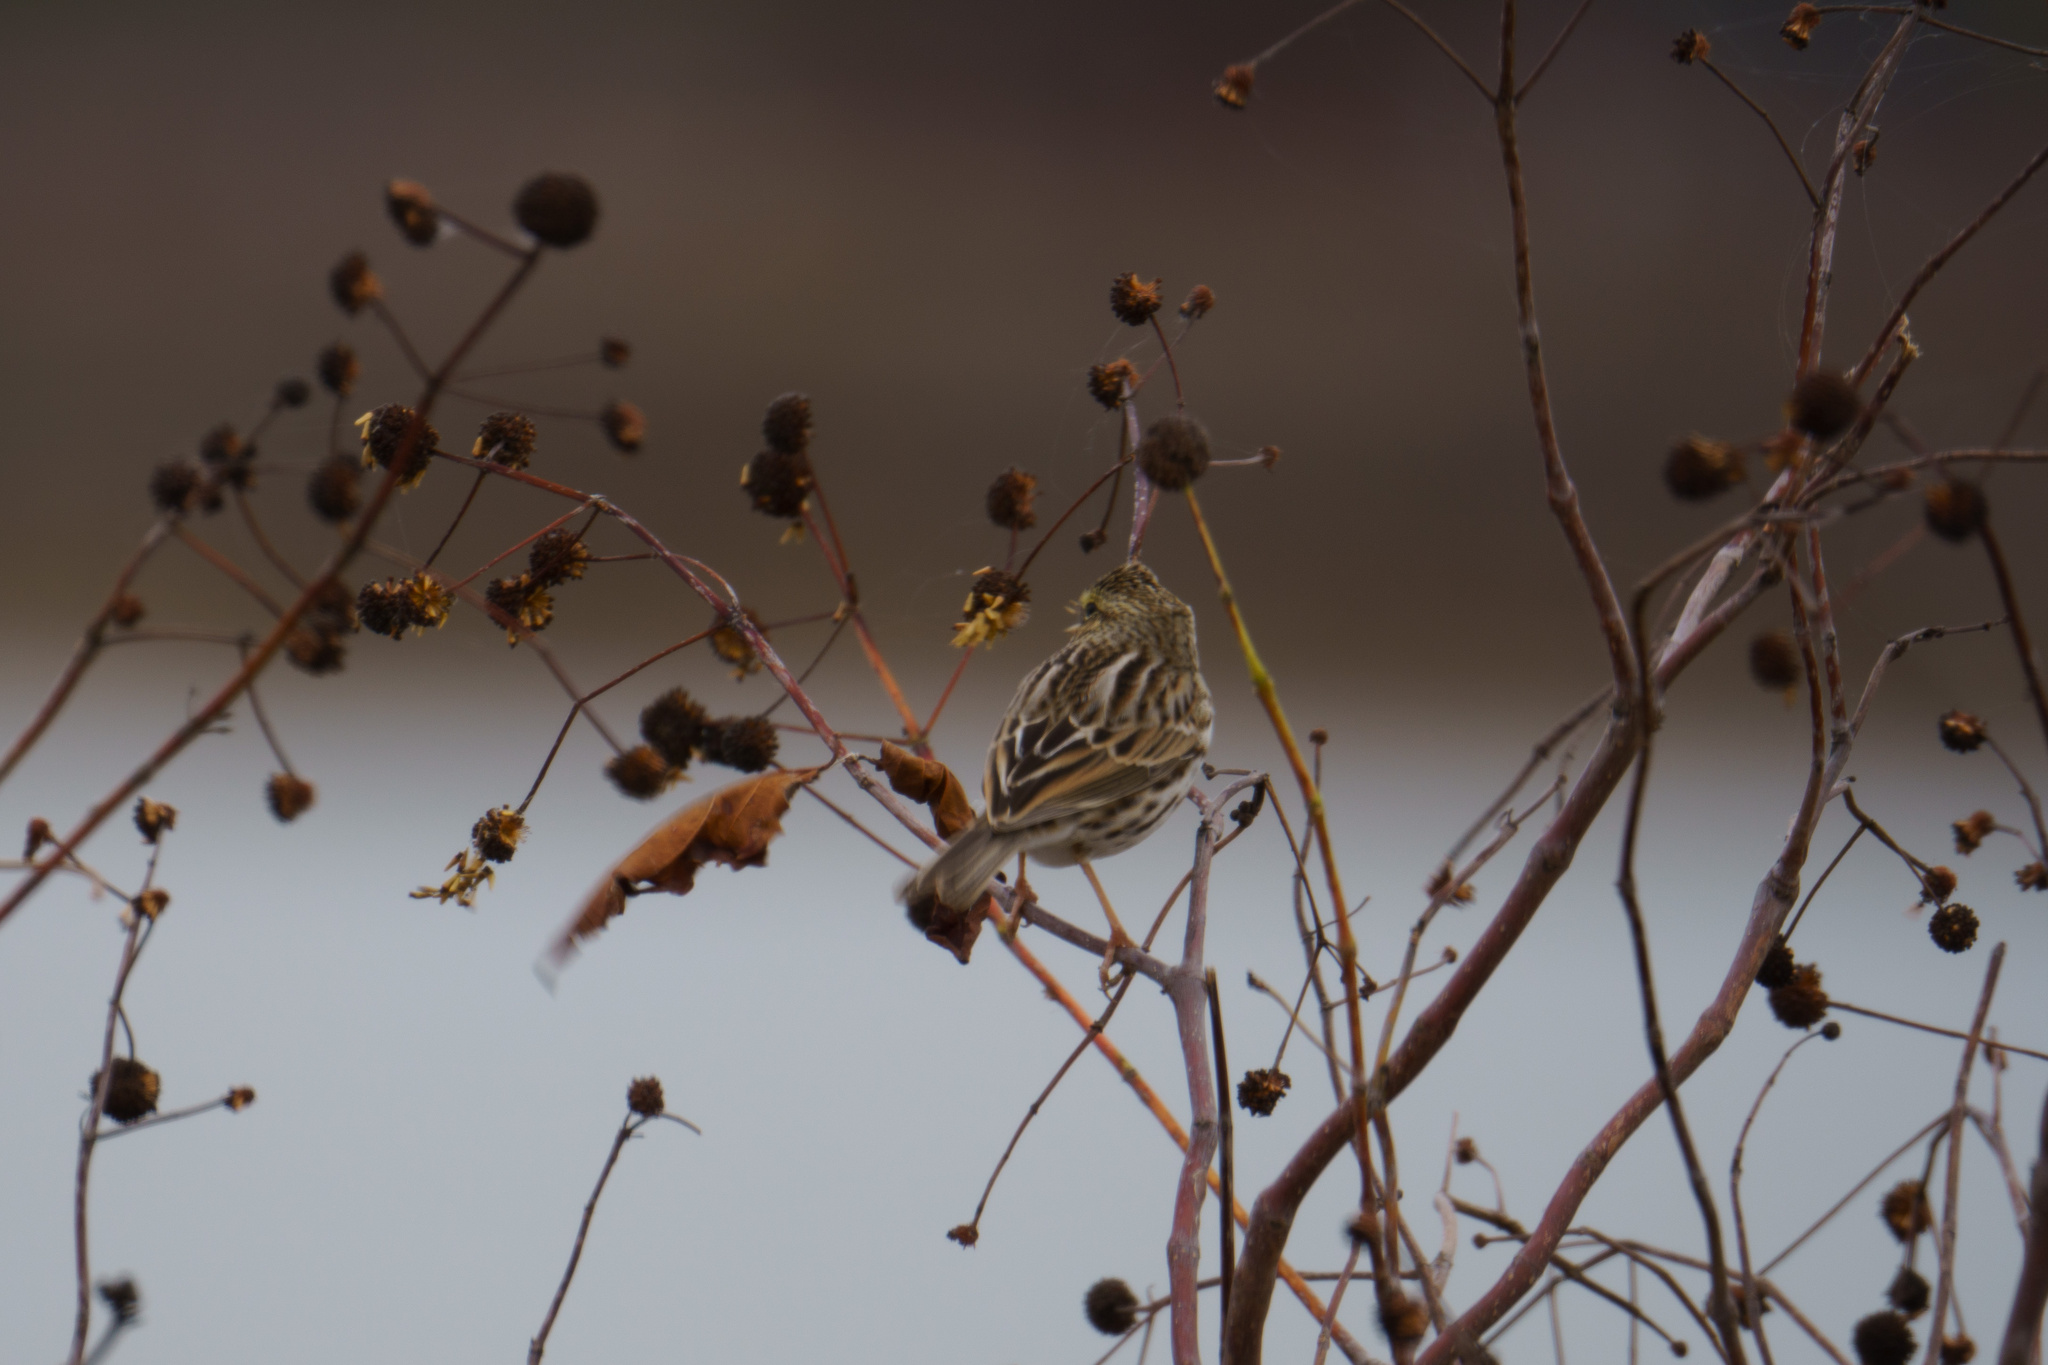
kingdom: Animalia
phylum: Chordata
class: Aves
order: Passeriformes
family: Passerellidae
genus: Passerculus
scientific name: Passerculus sandwichensis
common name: Savannah sparrow
